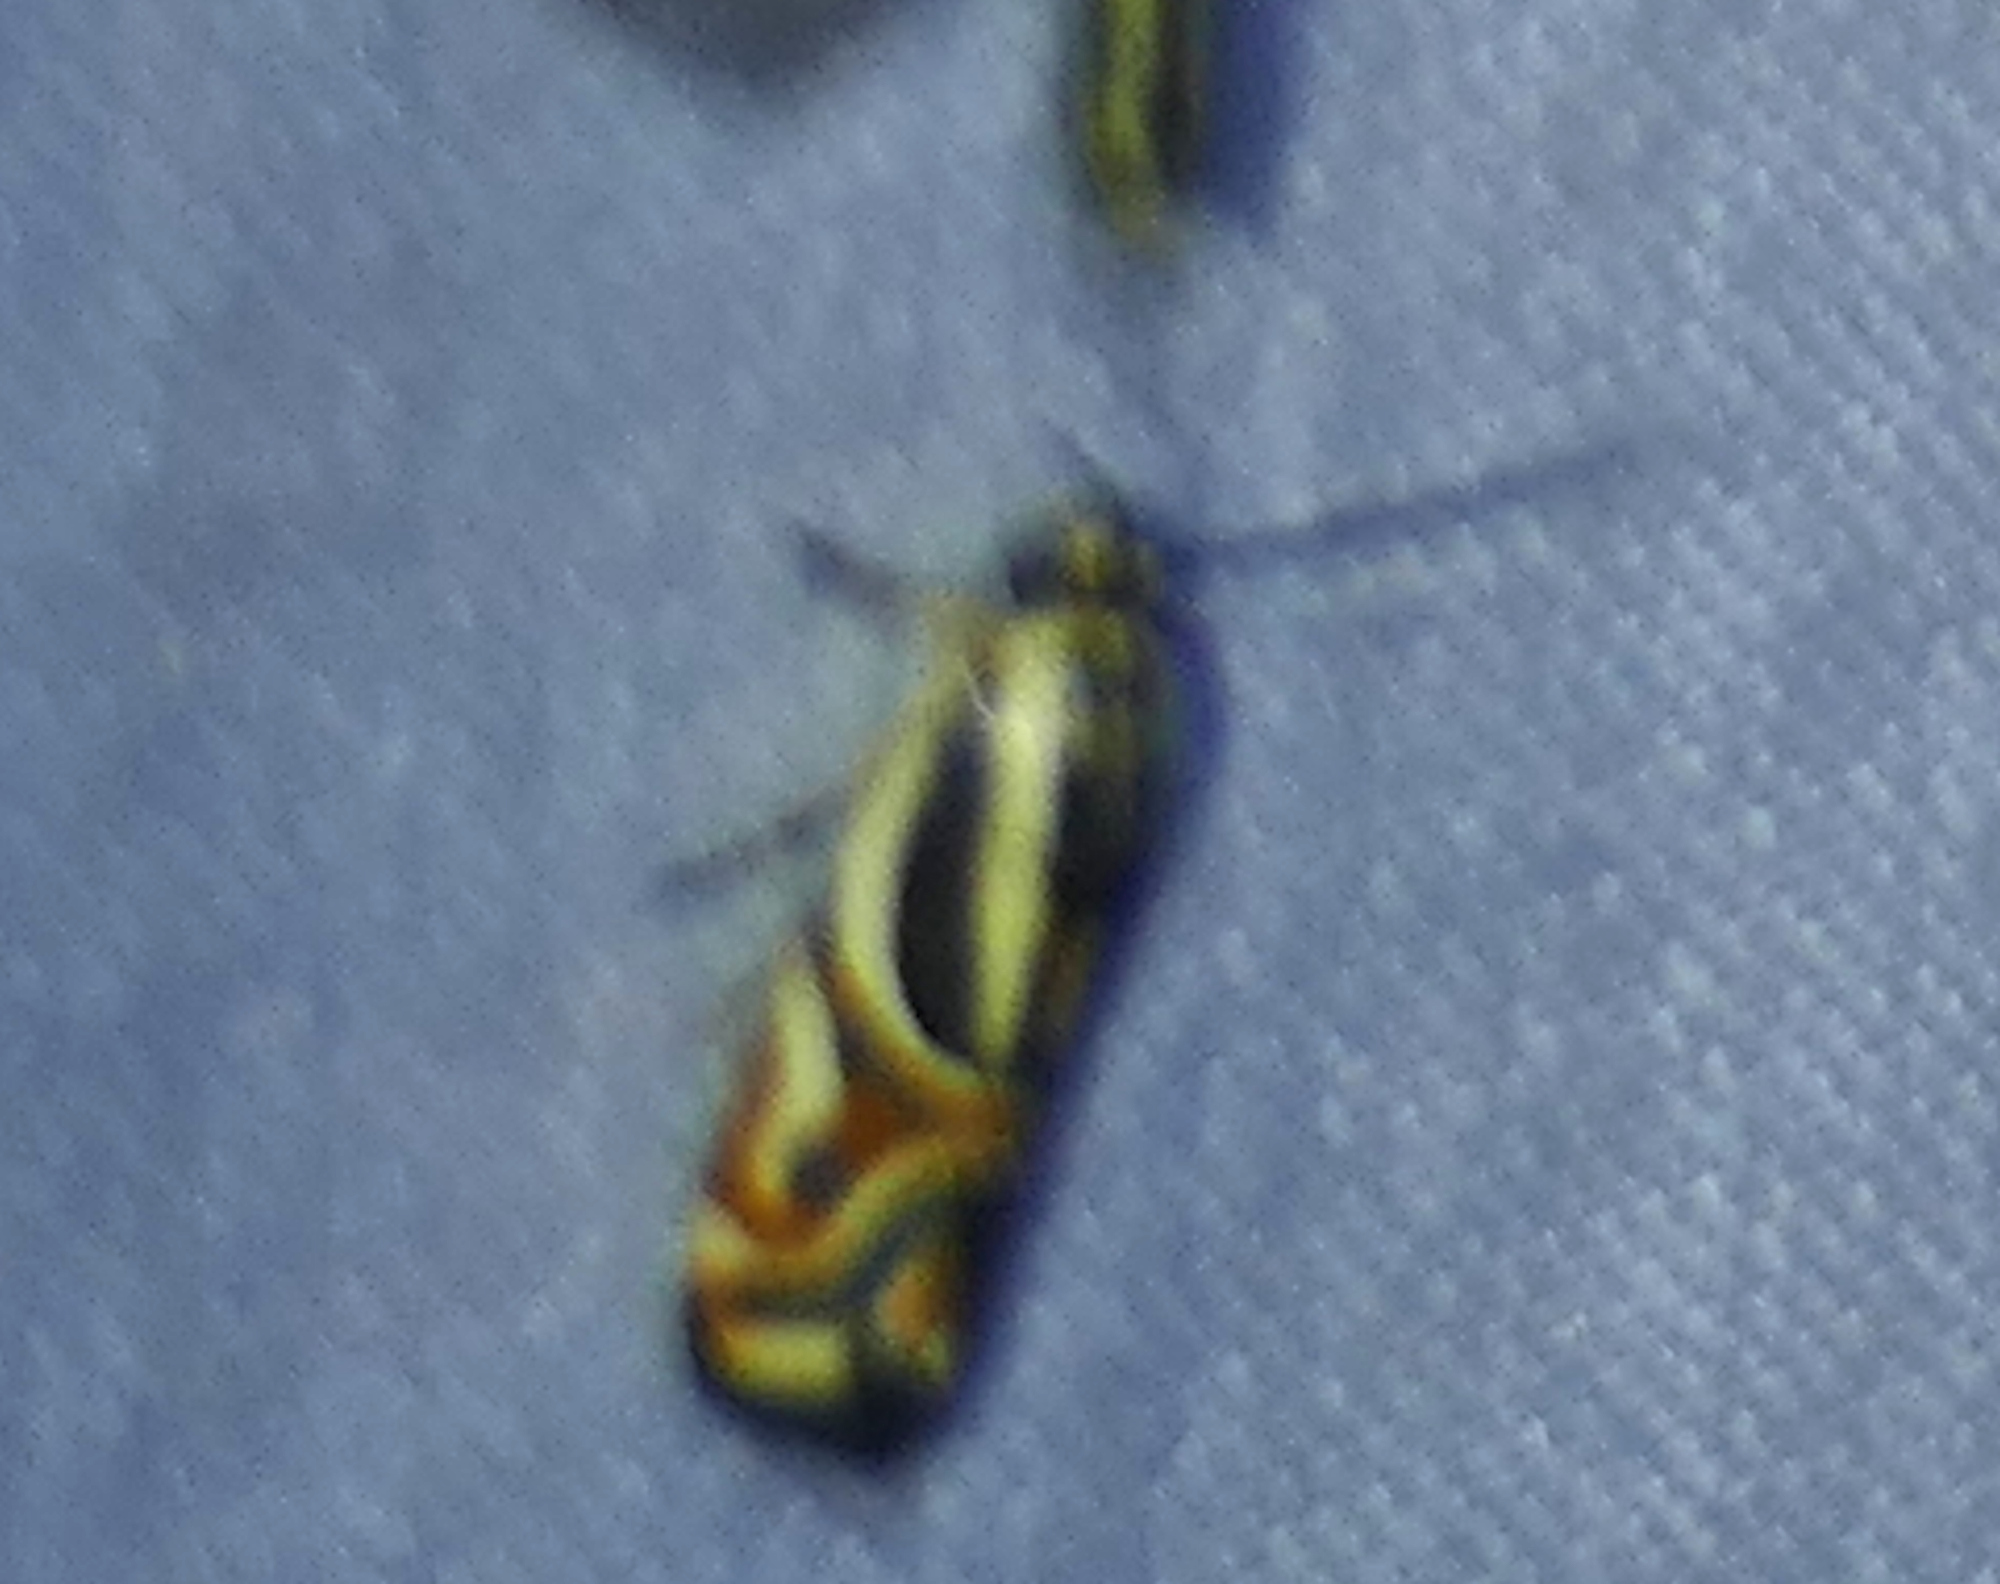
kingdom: Animalia
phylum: Arthropoda
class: Insecta
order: Lepidoptera
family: Noctuidae
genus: Spragueia
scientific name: Spragueia magnifica
